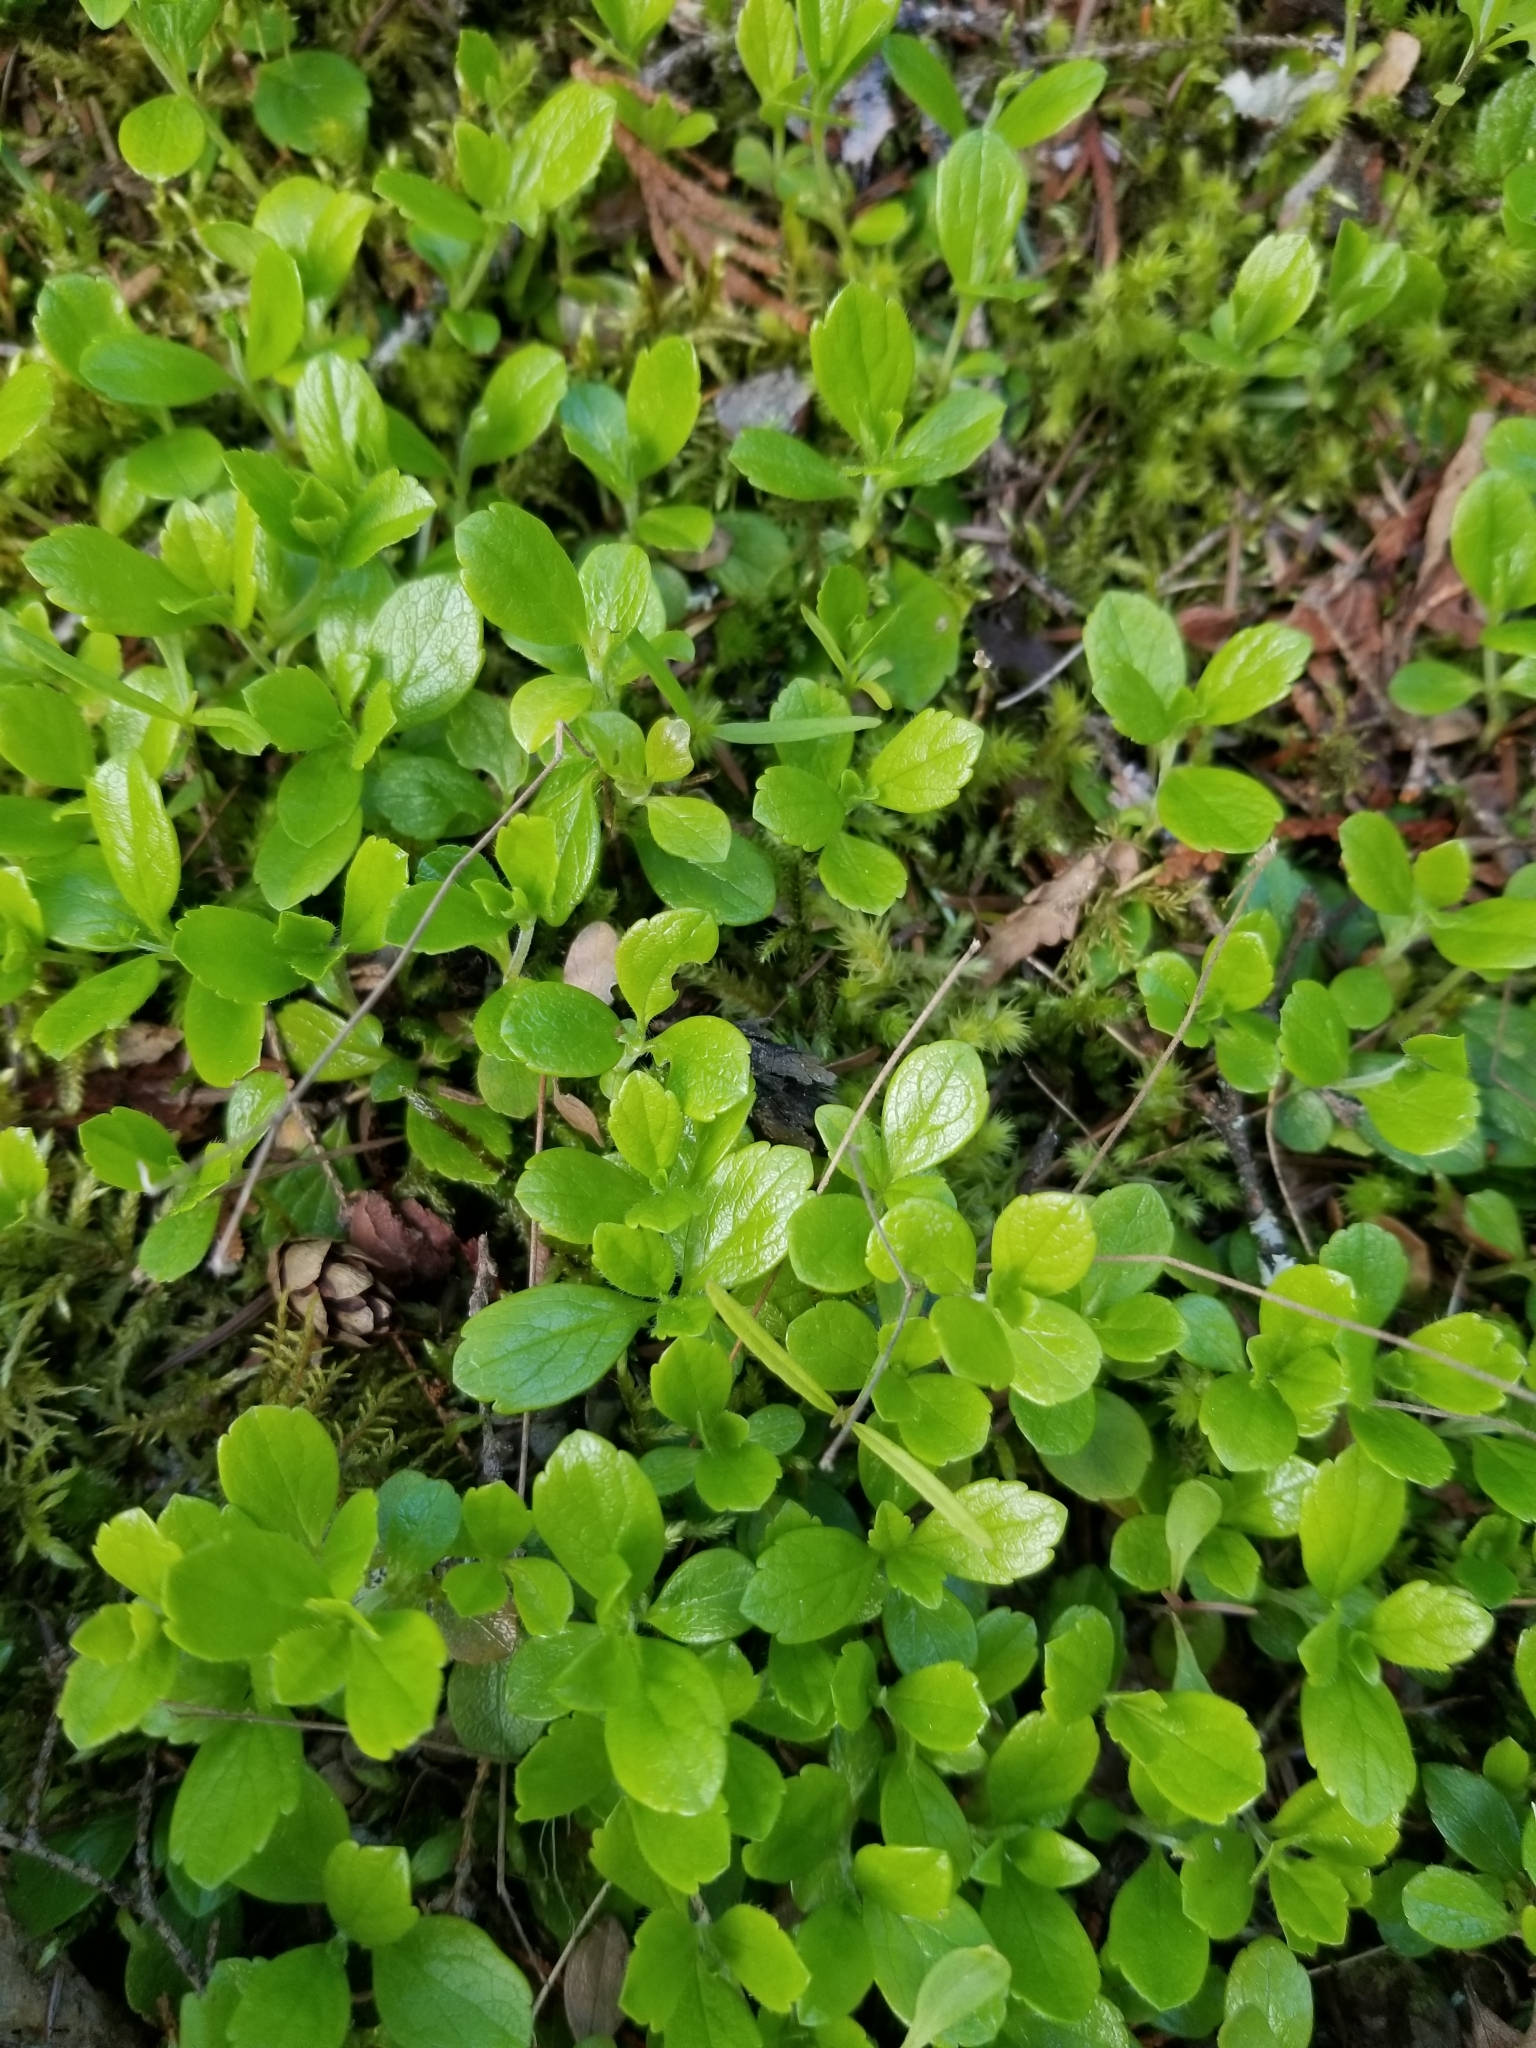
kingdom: Plantae
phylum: Tracheophyta
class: Magnoliopsida
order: Dipsacales
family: Caprifoliaceae
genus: Linnaea
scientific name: Linnaea borealis
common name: Twinflower
